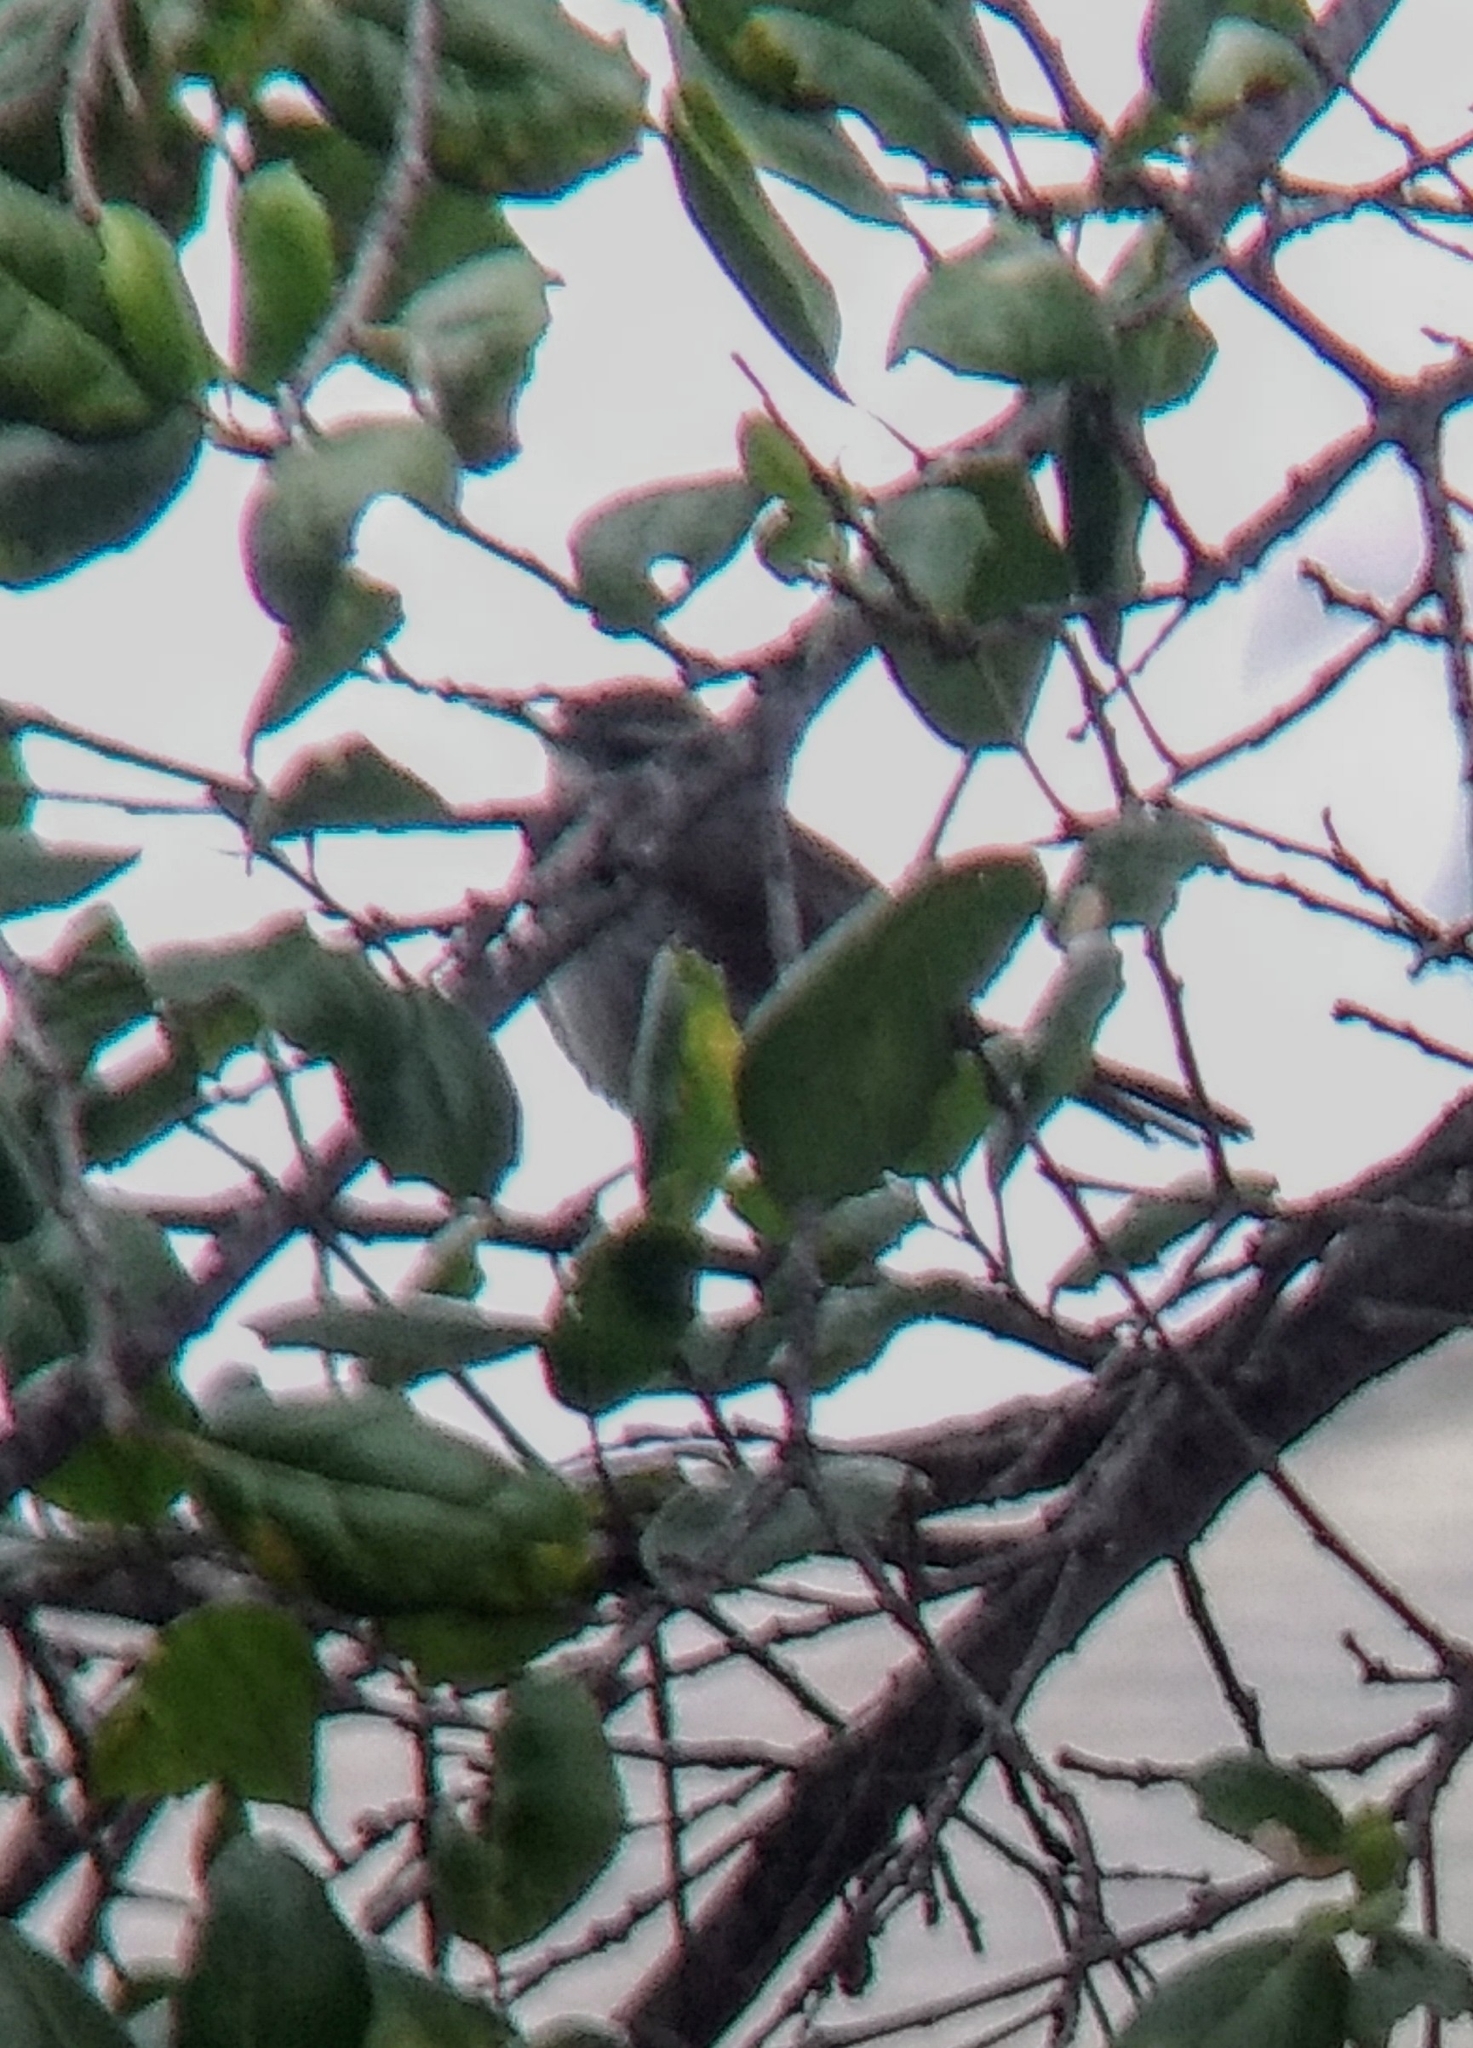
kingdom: Animalia
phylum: Chordata
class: Aves
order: Passeriformes
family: Troglodytidae
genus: Thryomanes
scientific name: Thryomanes bewickii
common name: Bewick's wren
